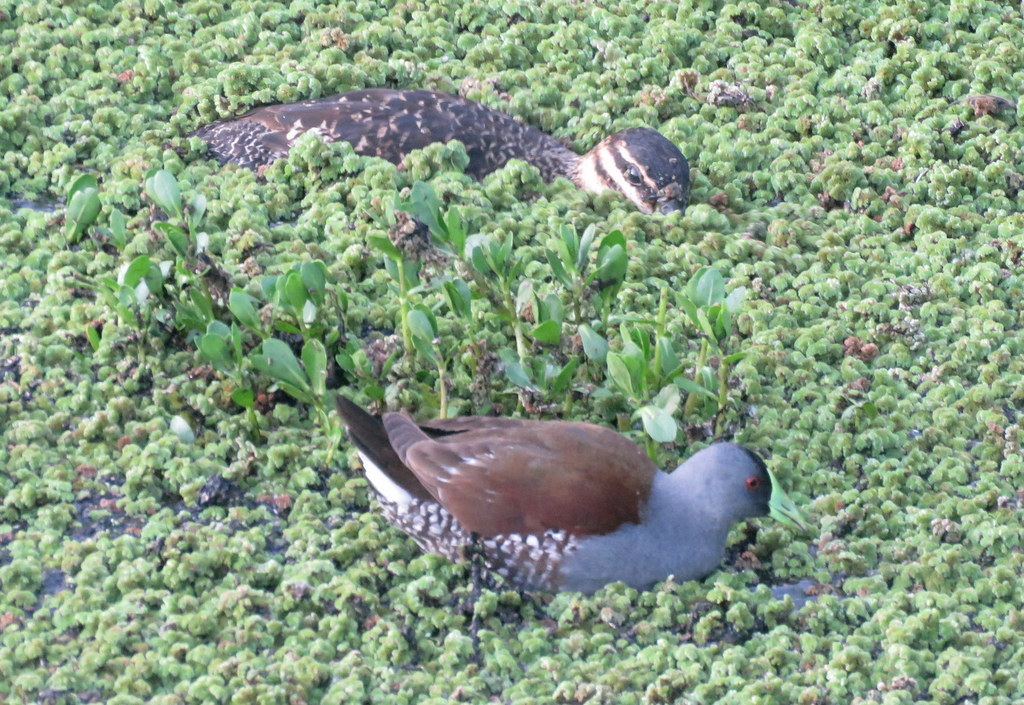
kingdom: Animalia
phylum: Chordata
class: Aves
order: Gruiformes
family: Rallidae
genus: Gallinula
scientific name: Gallinula melanops
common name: Spot-flanked gallinule
